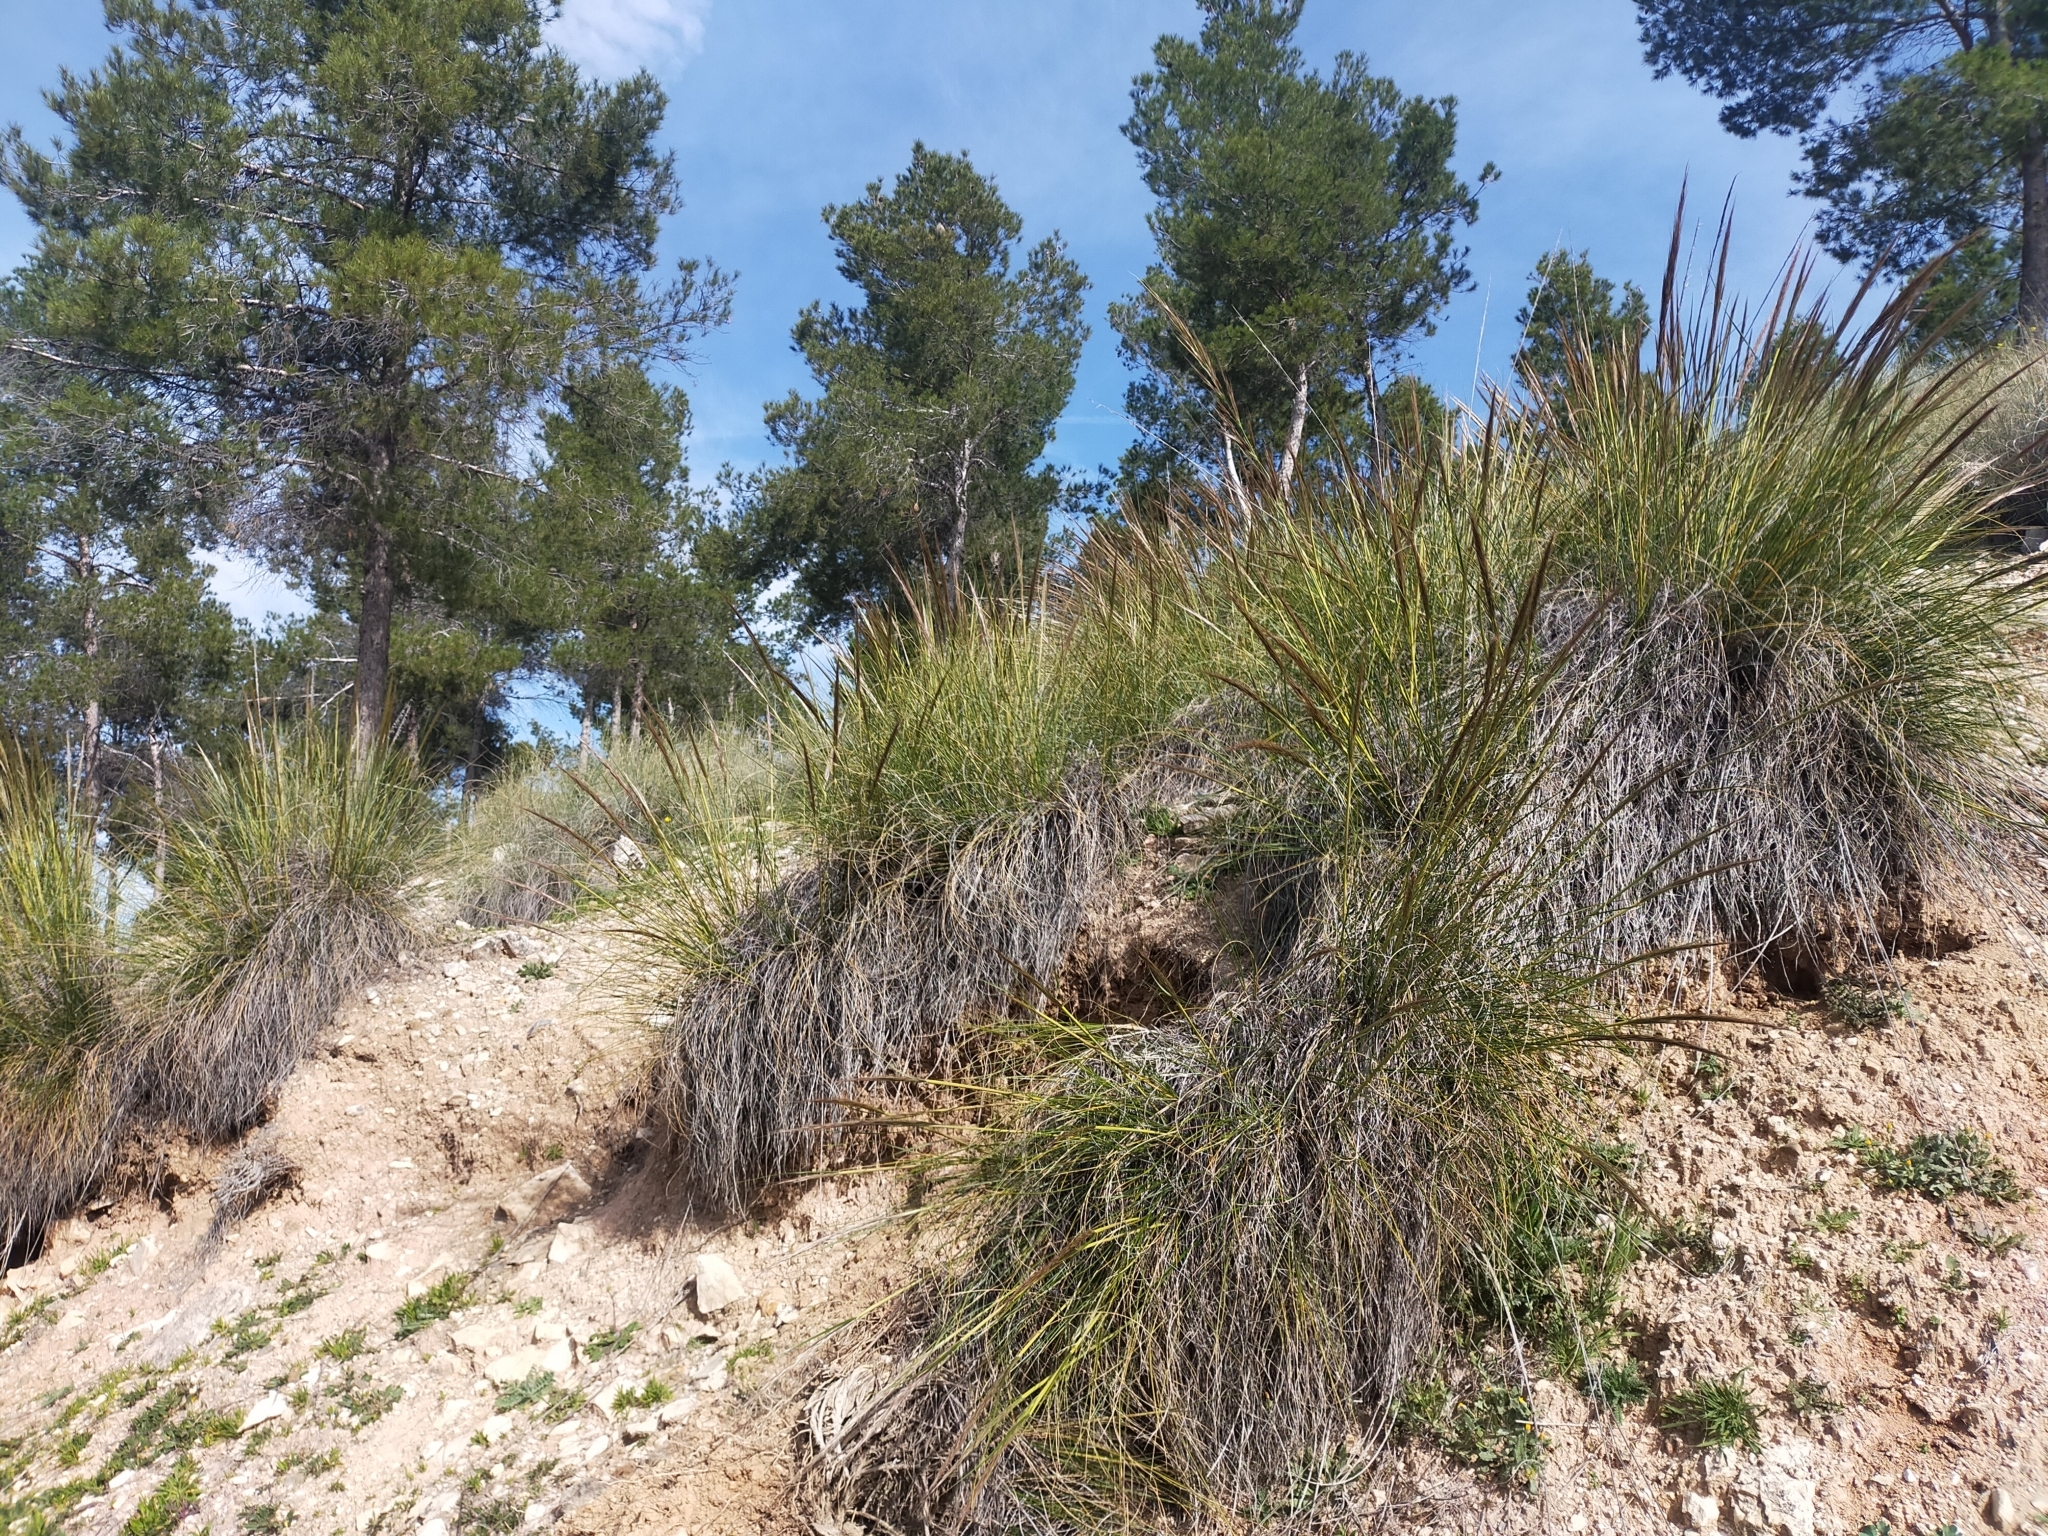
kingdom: Plantae
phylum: Tracheophyta
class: Liliopsida
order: Poales
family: Poaceae
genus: Macrochloa
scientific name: Macrochloa tenacissima
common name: Alfa grass
